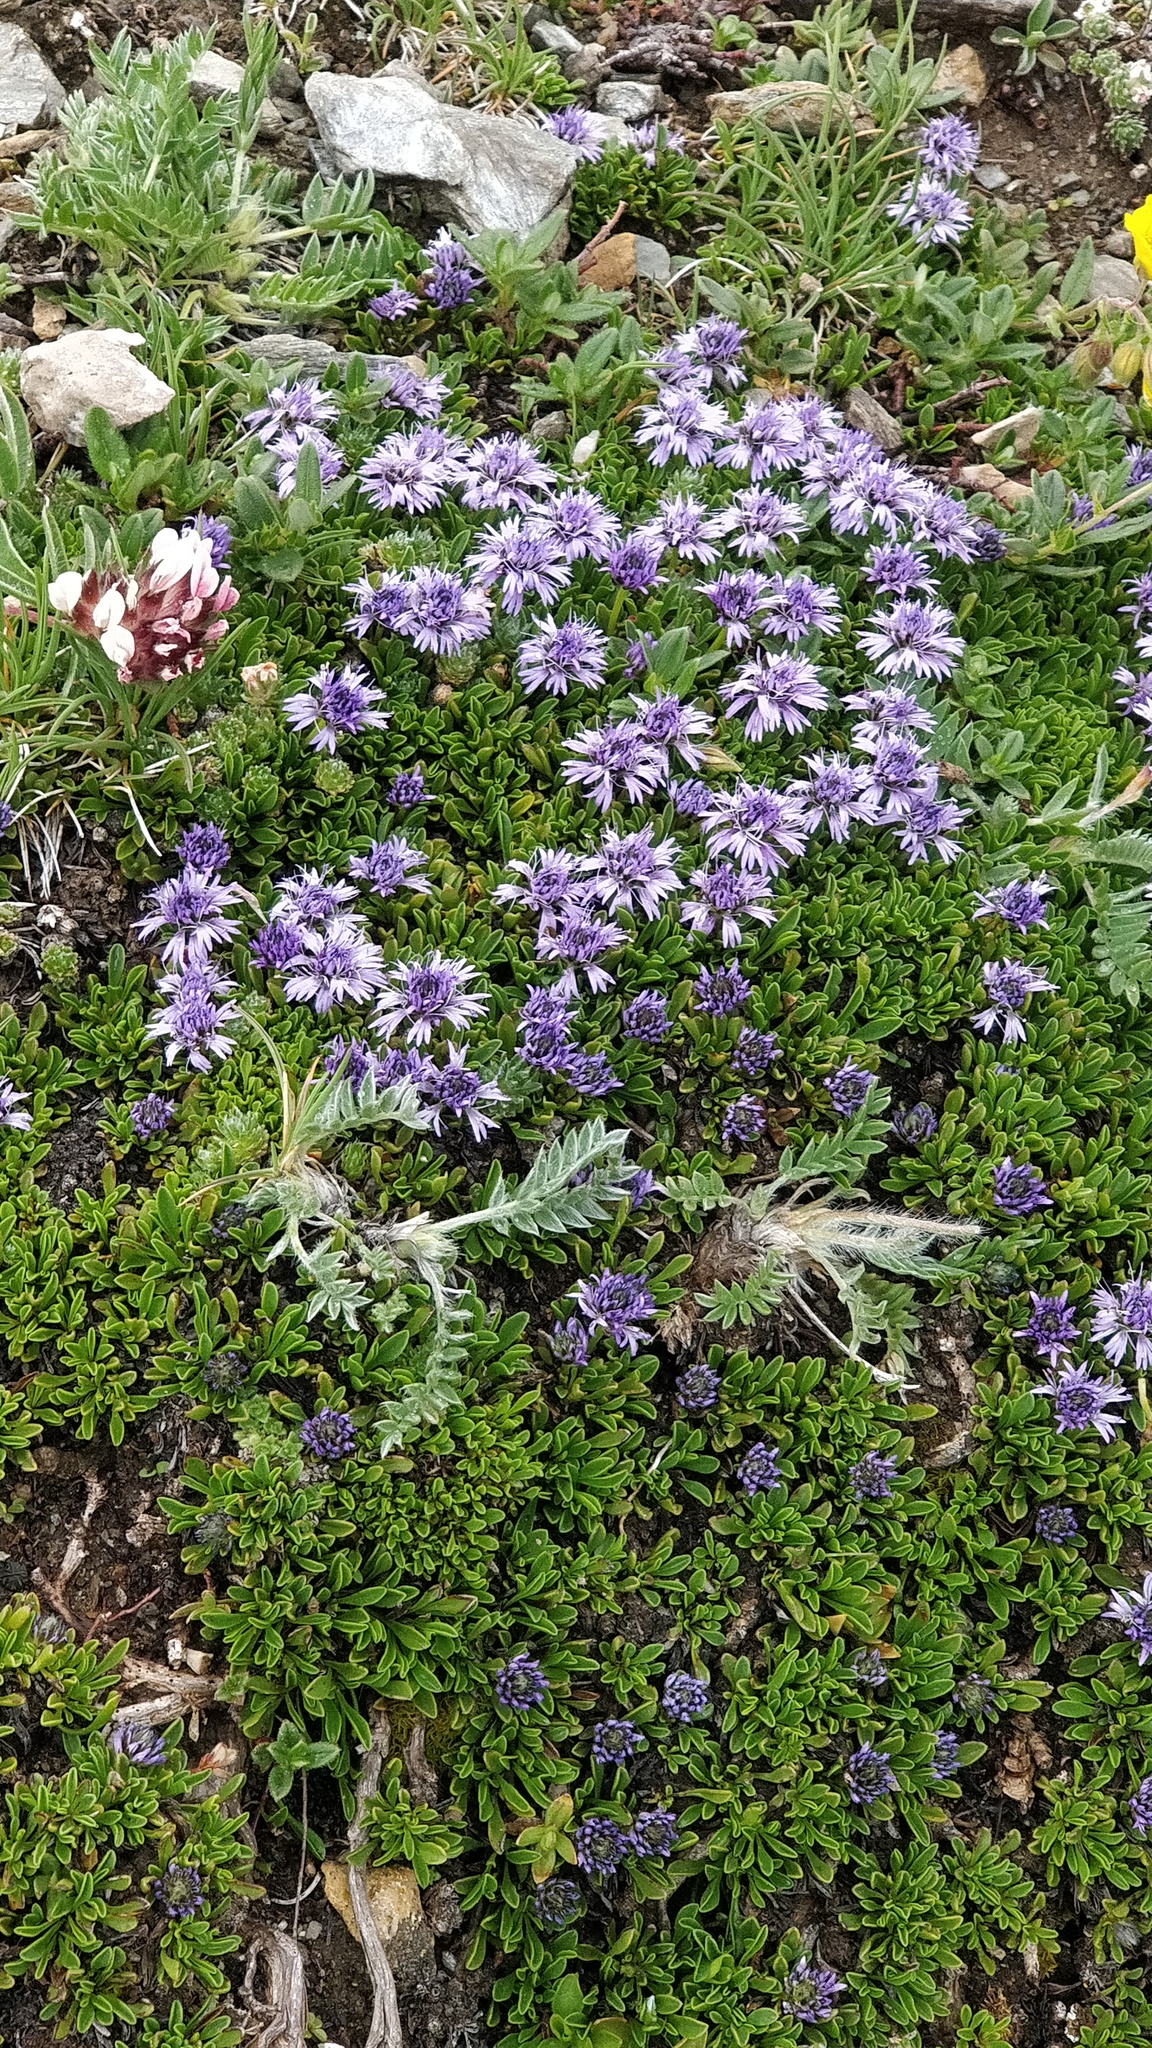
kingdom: Plantae
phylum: Tracheophyta
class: Magnoliopsida
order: Lamiales
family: Plantaginaceae
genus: Globularia
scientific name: Globularia repens
